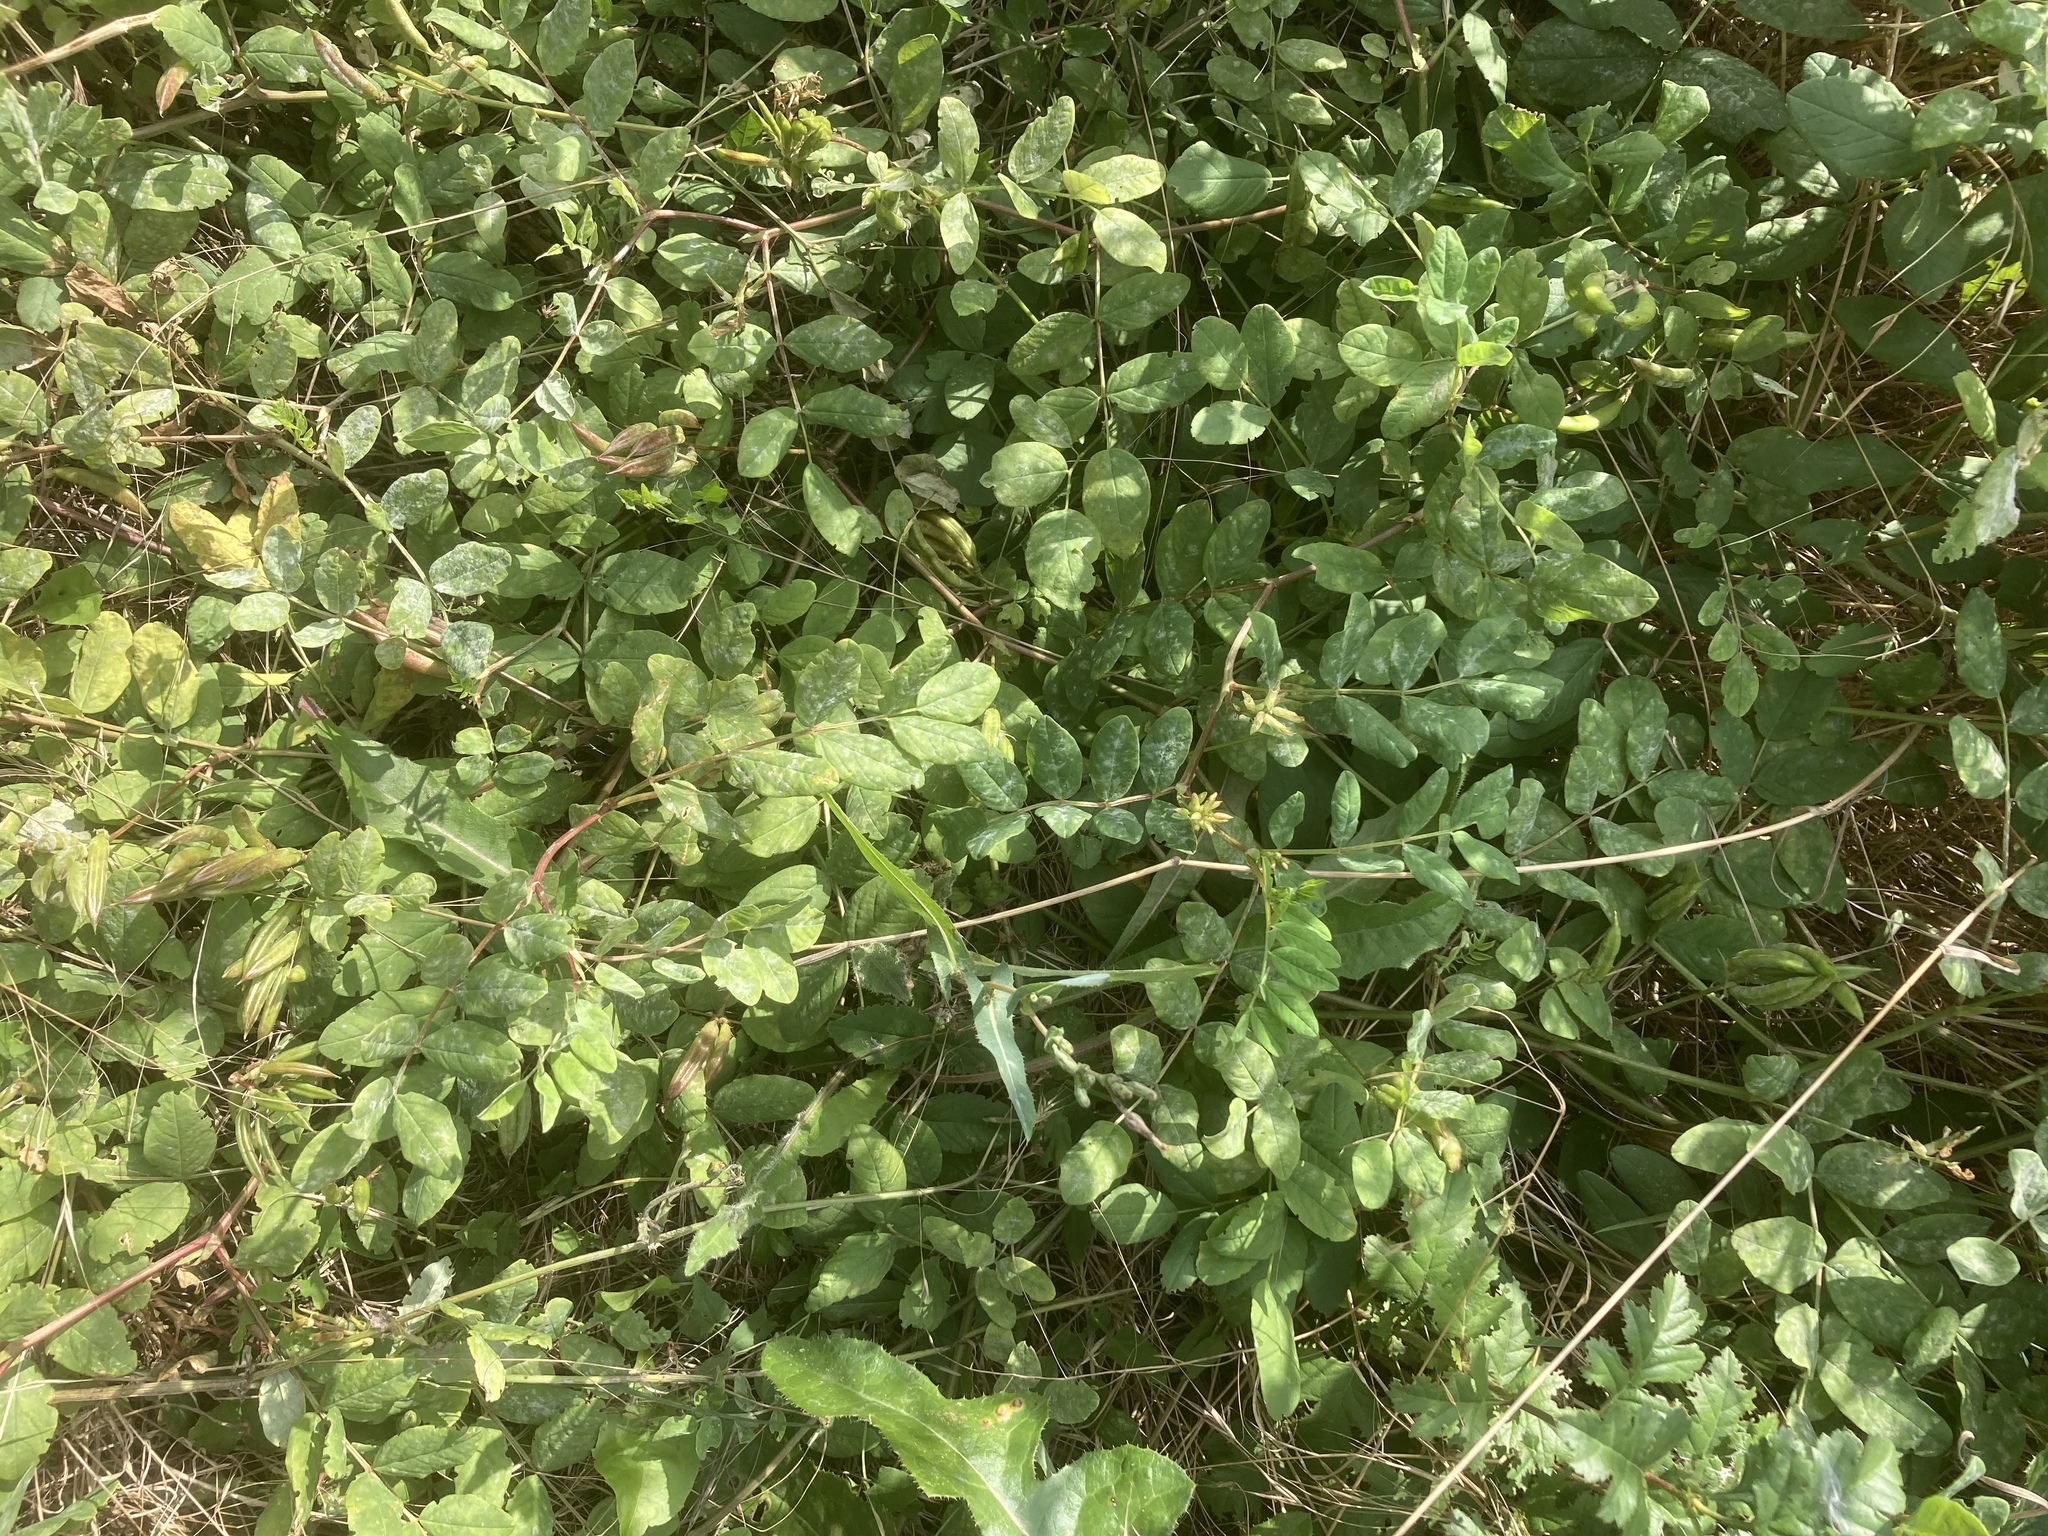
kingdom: Plantae
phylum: Tracheophyta
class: Magnoliopsida
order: Fabales
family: Fabaceae
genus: Astragalus
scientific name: Astragalus glycyphyllos
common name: Wild liquorice
